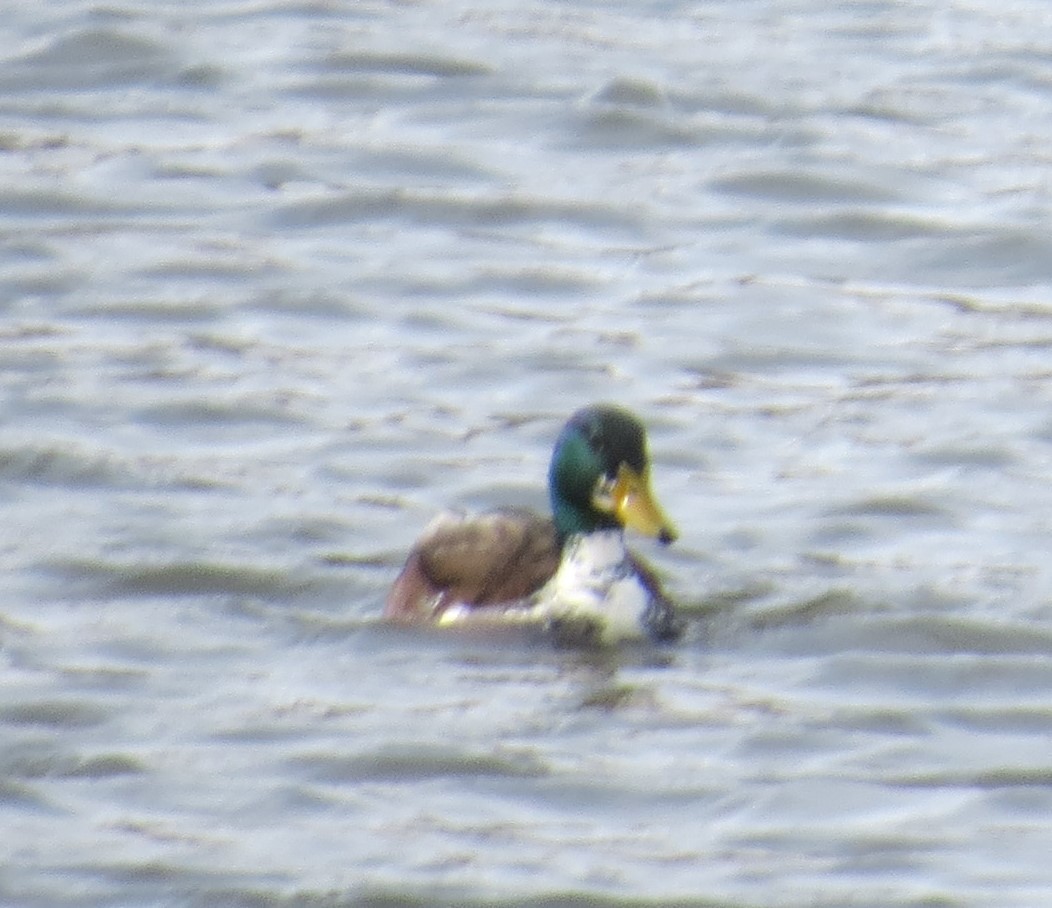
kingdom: Animalia
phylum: Chordata
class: Aves
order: Anseriformes
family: Anatidae
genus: Anas
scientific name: Anas platyrhynchos
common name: Mallard
